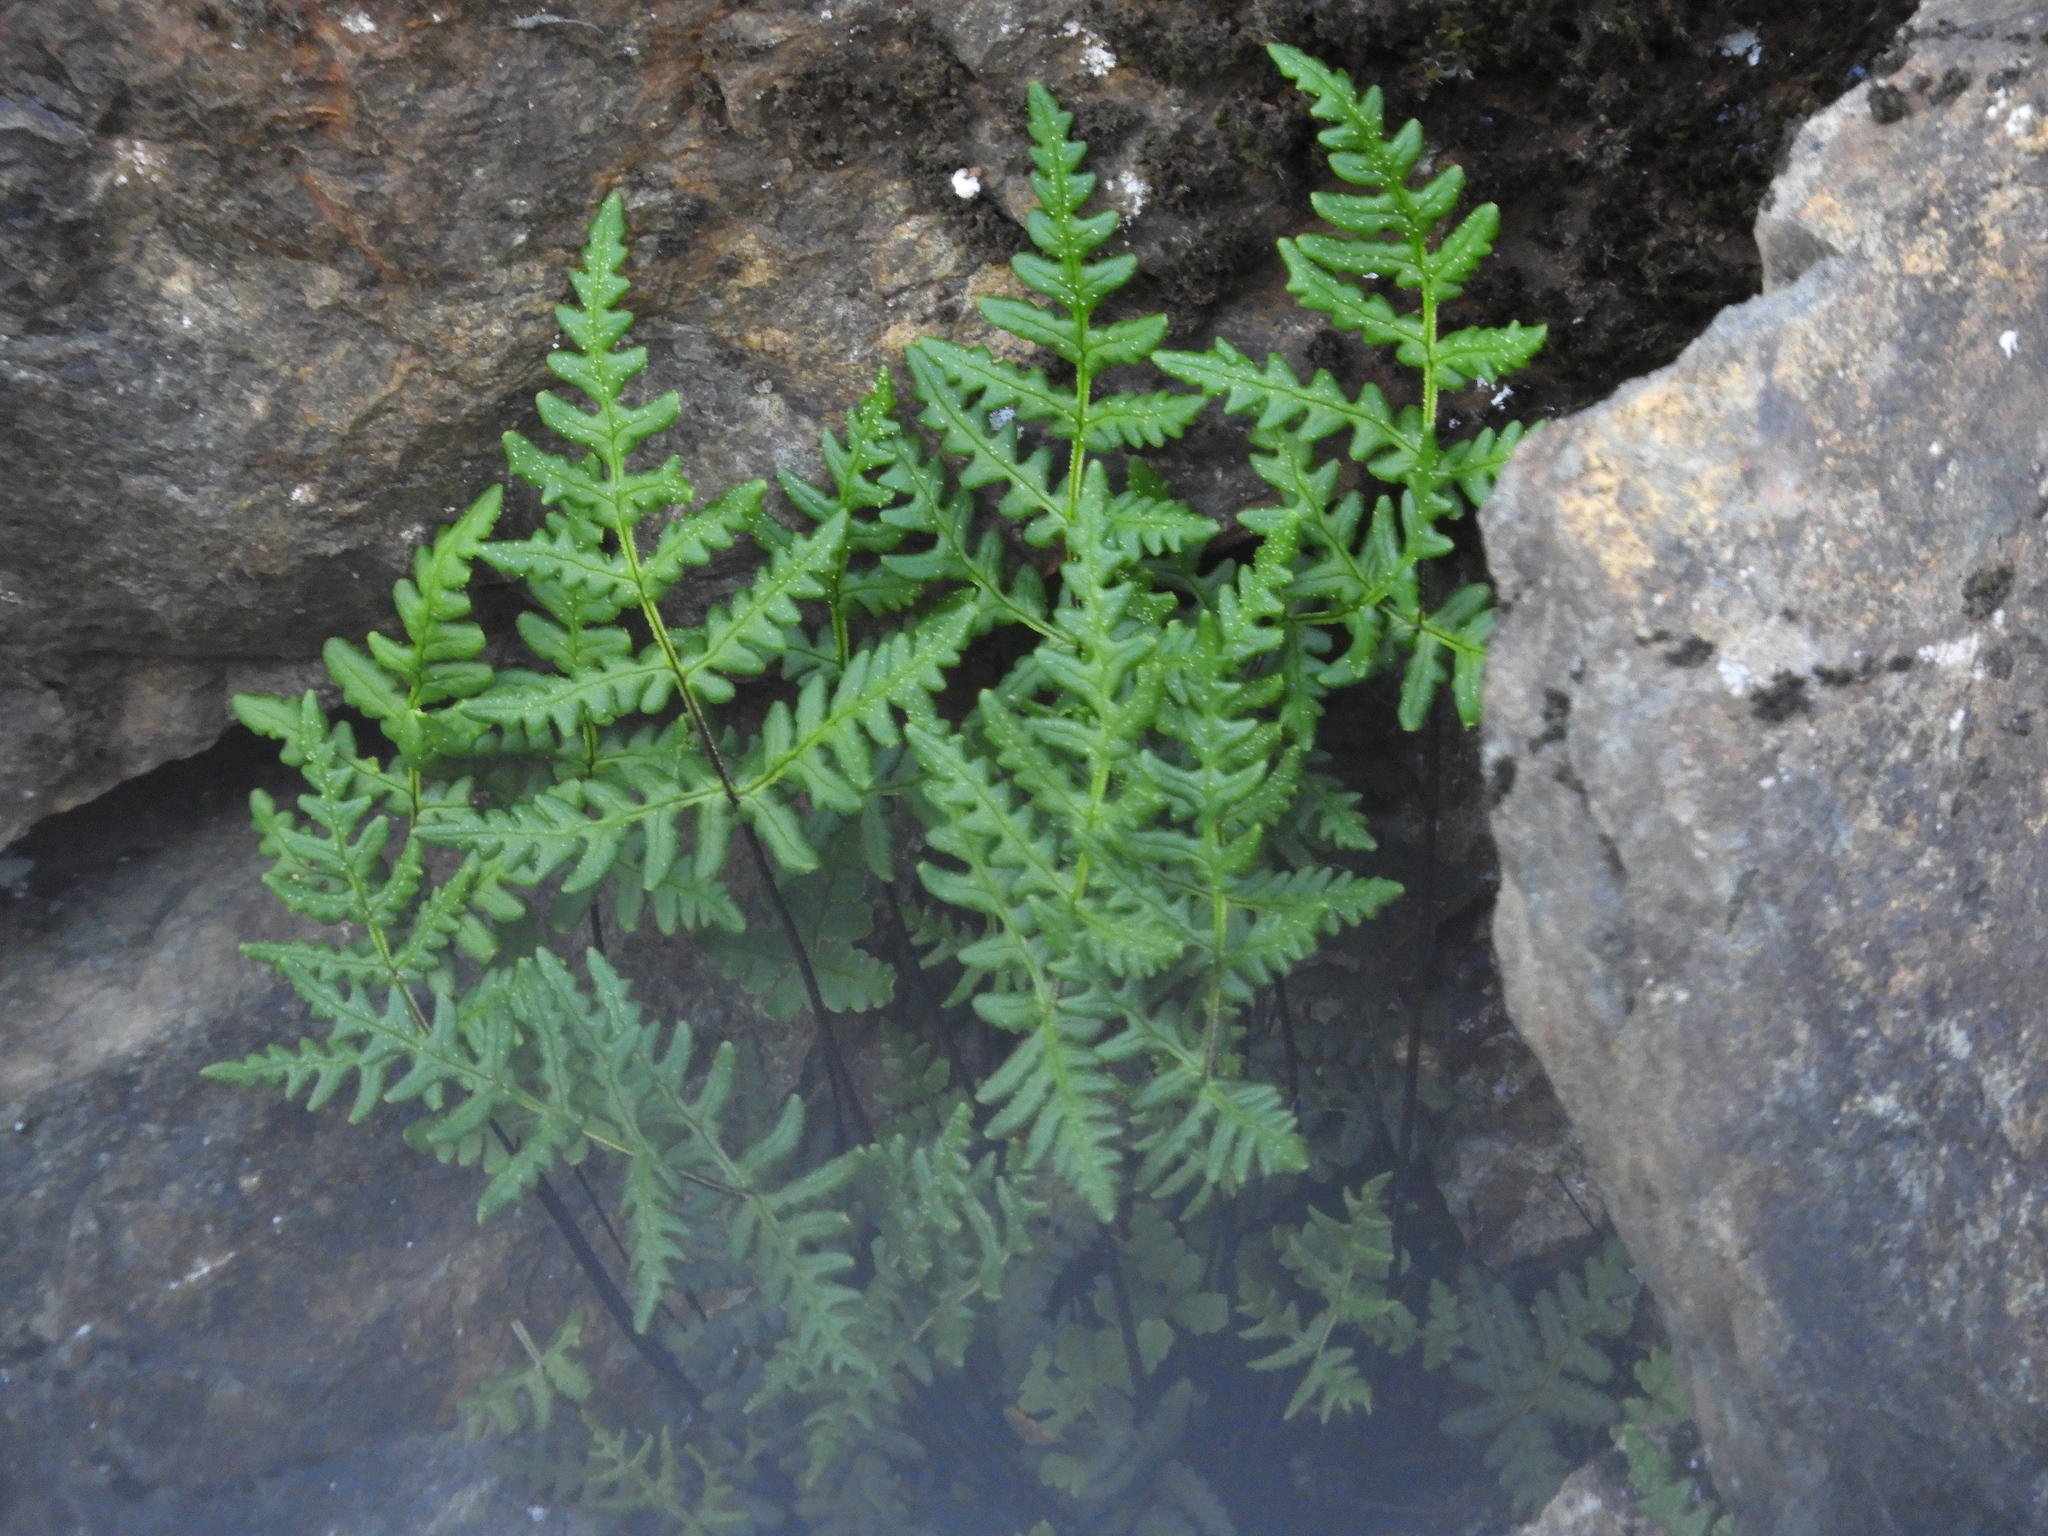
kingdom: Plantae
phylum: Tracheophyta
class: Polypodiopsida
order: Polypodiales
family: Pteridaceae
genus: Pentagramma
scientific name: Pentagramma triangularis
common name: Gold fern
